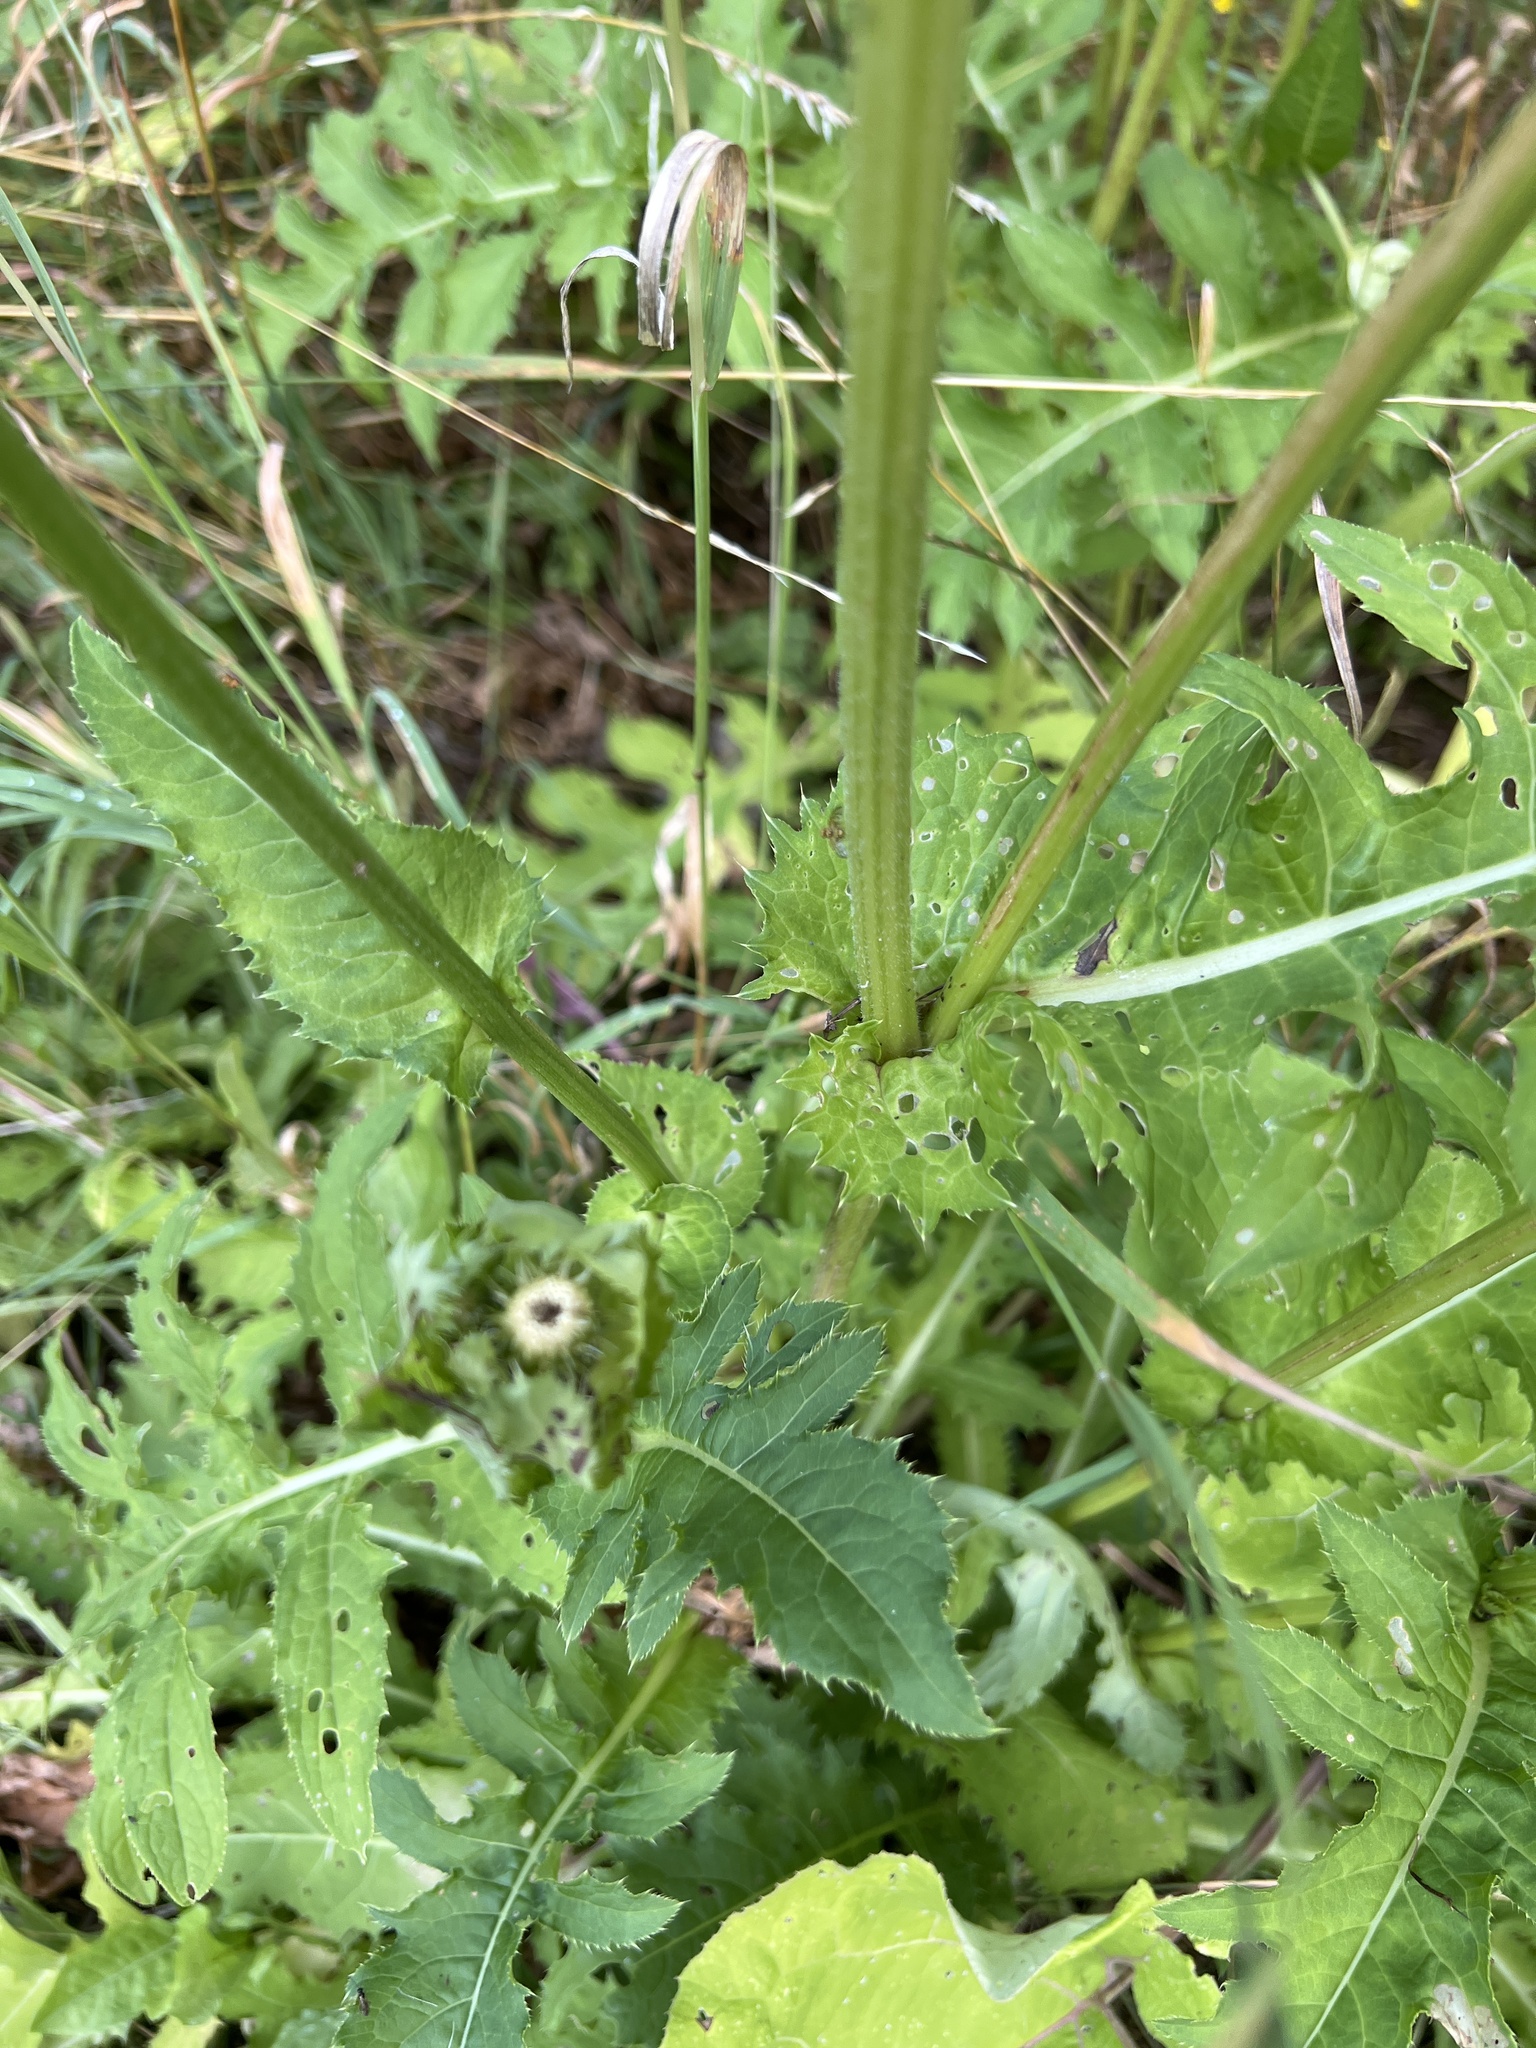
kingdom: Plantae
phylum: Tracheophyta
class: Magnoliopsida
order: Asterales
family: Asteraceae
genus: Cirsium
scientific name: Cirsium oleraceum
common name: Cabbage thistle
